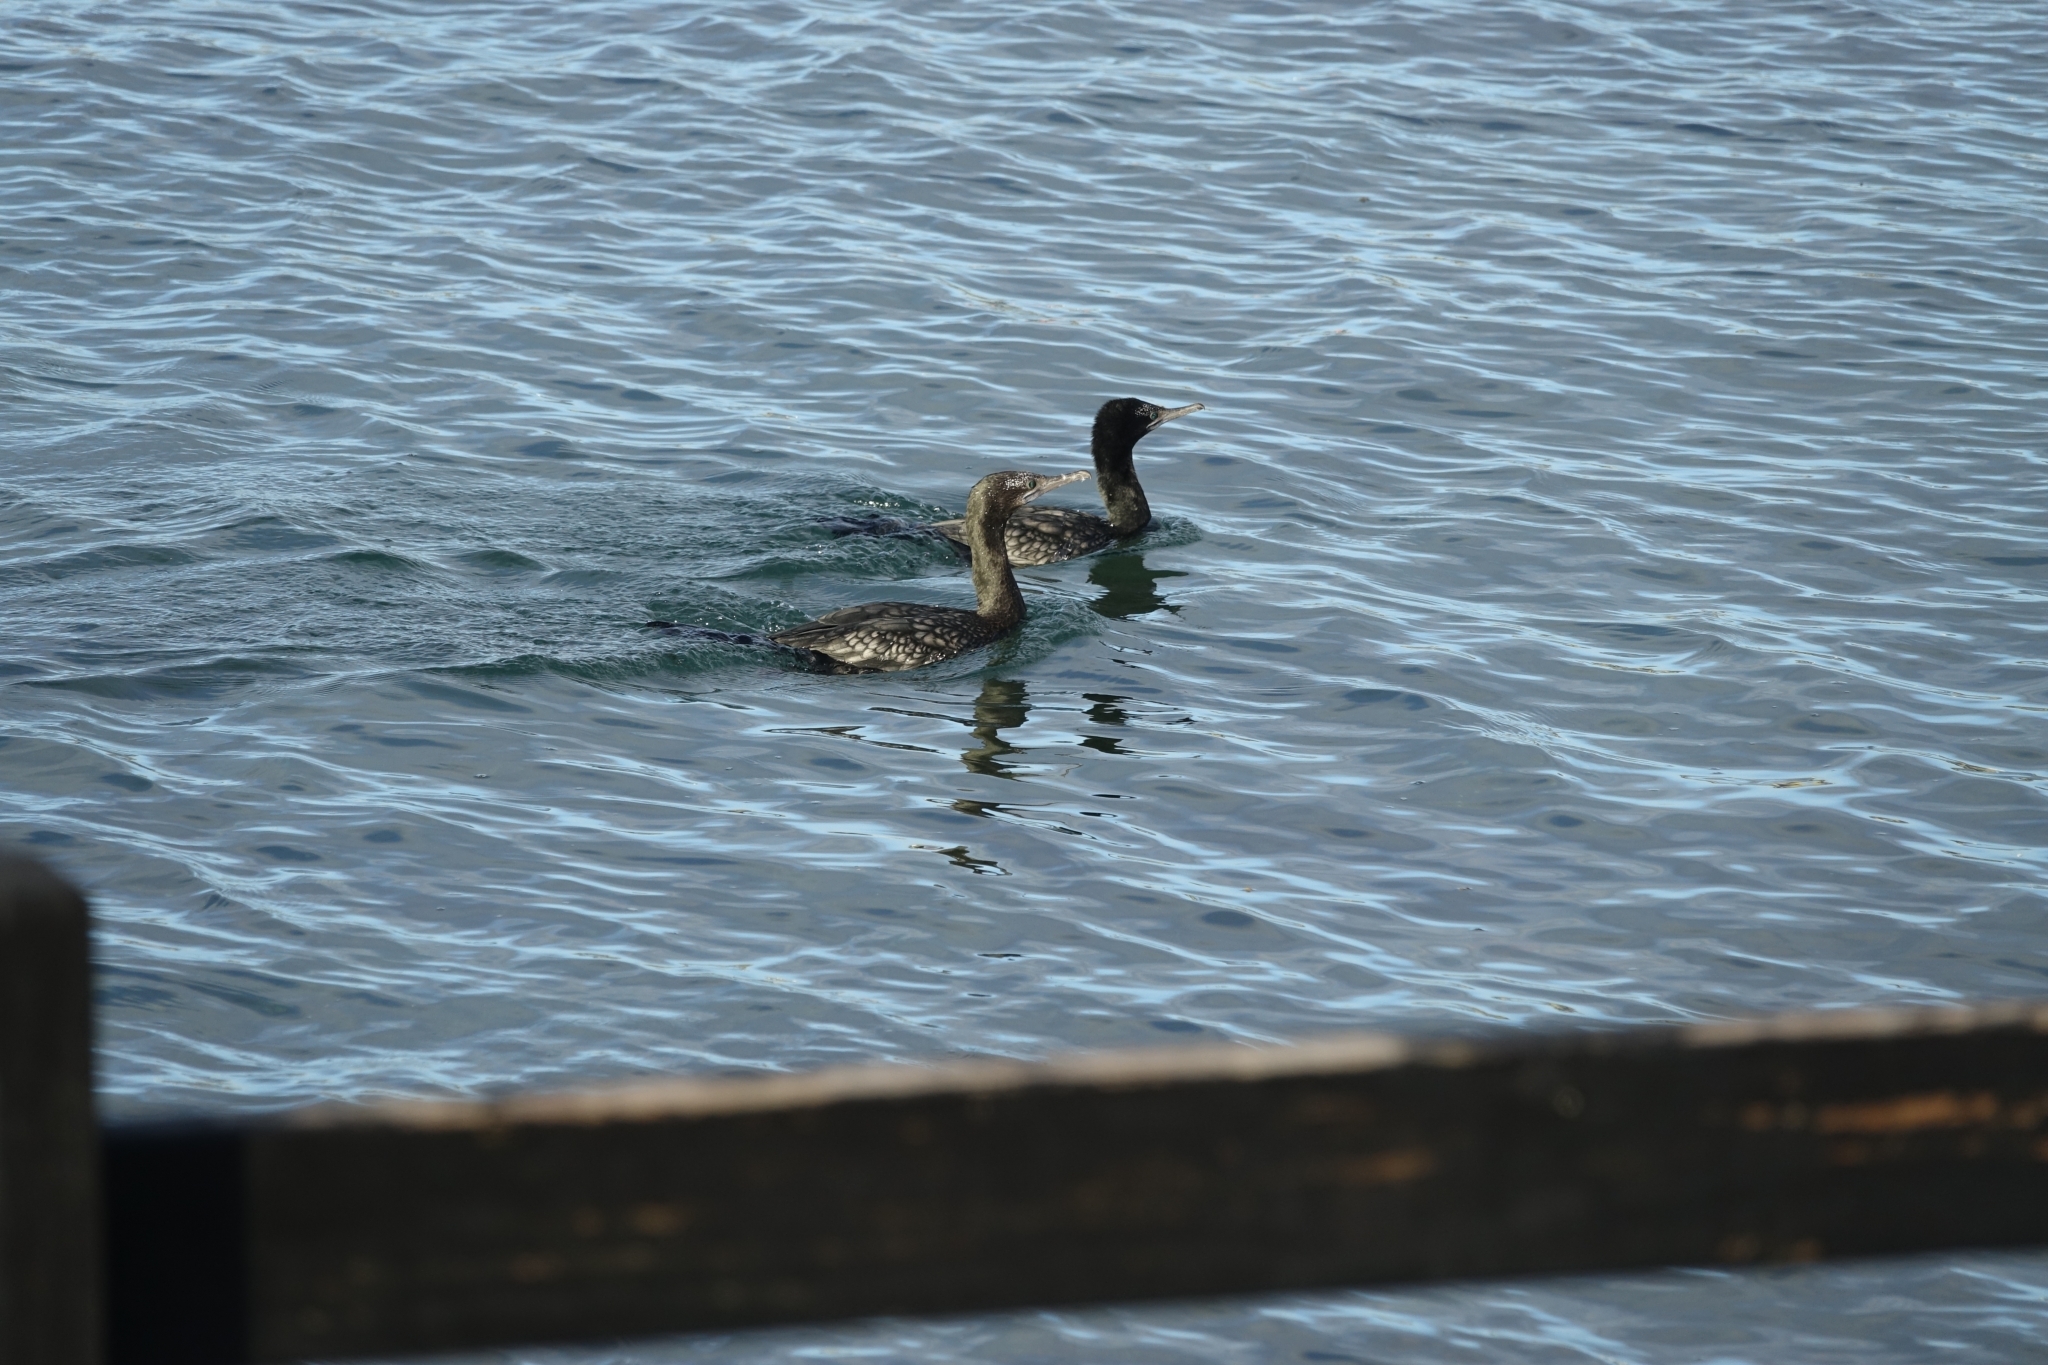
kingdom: Animalia
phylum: Chordata
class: Aves
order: Suliformes
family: Phalacrocoracidae
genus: Phalacrocorax
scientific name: Phalacrocorax sulcirostris
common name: Little black cormorant
